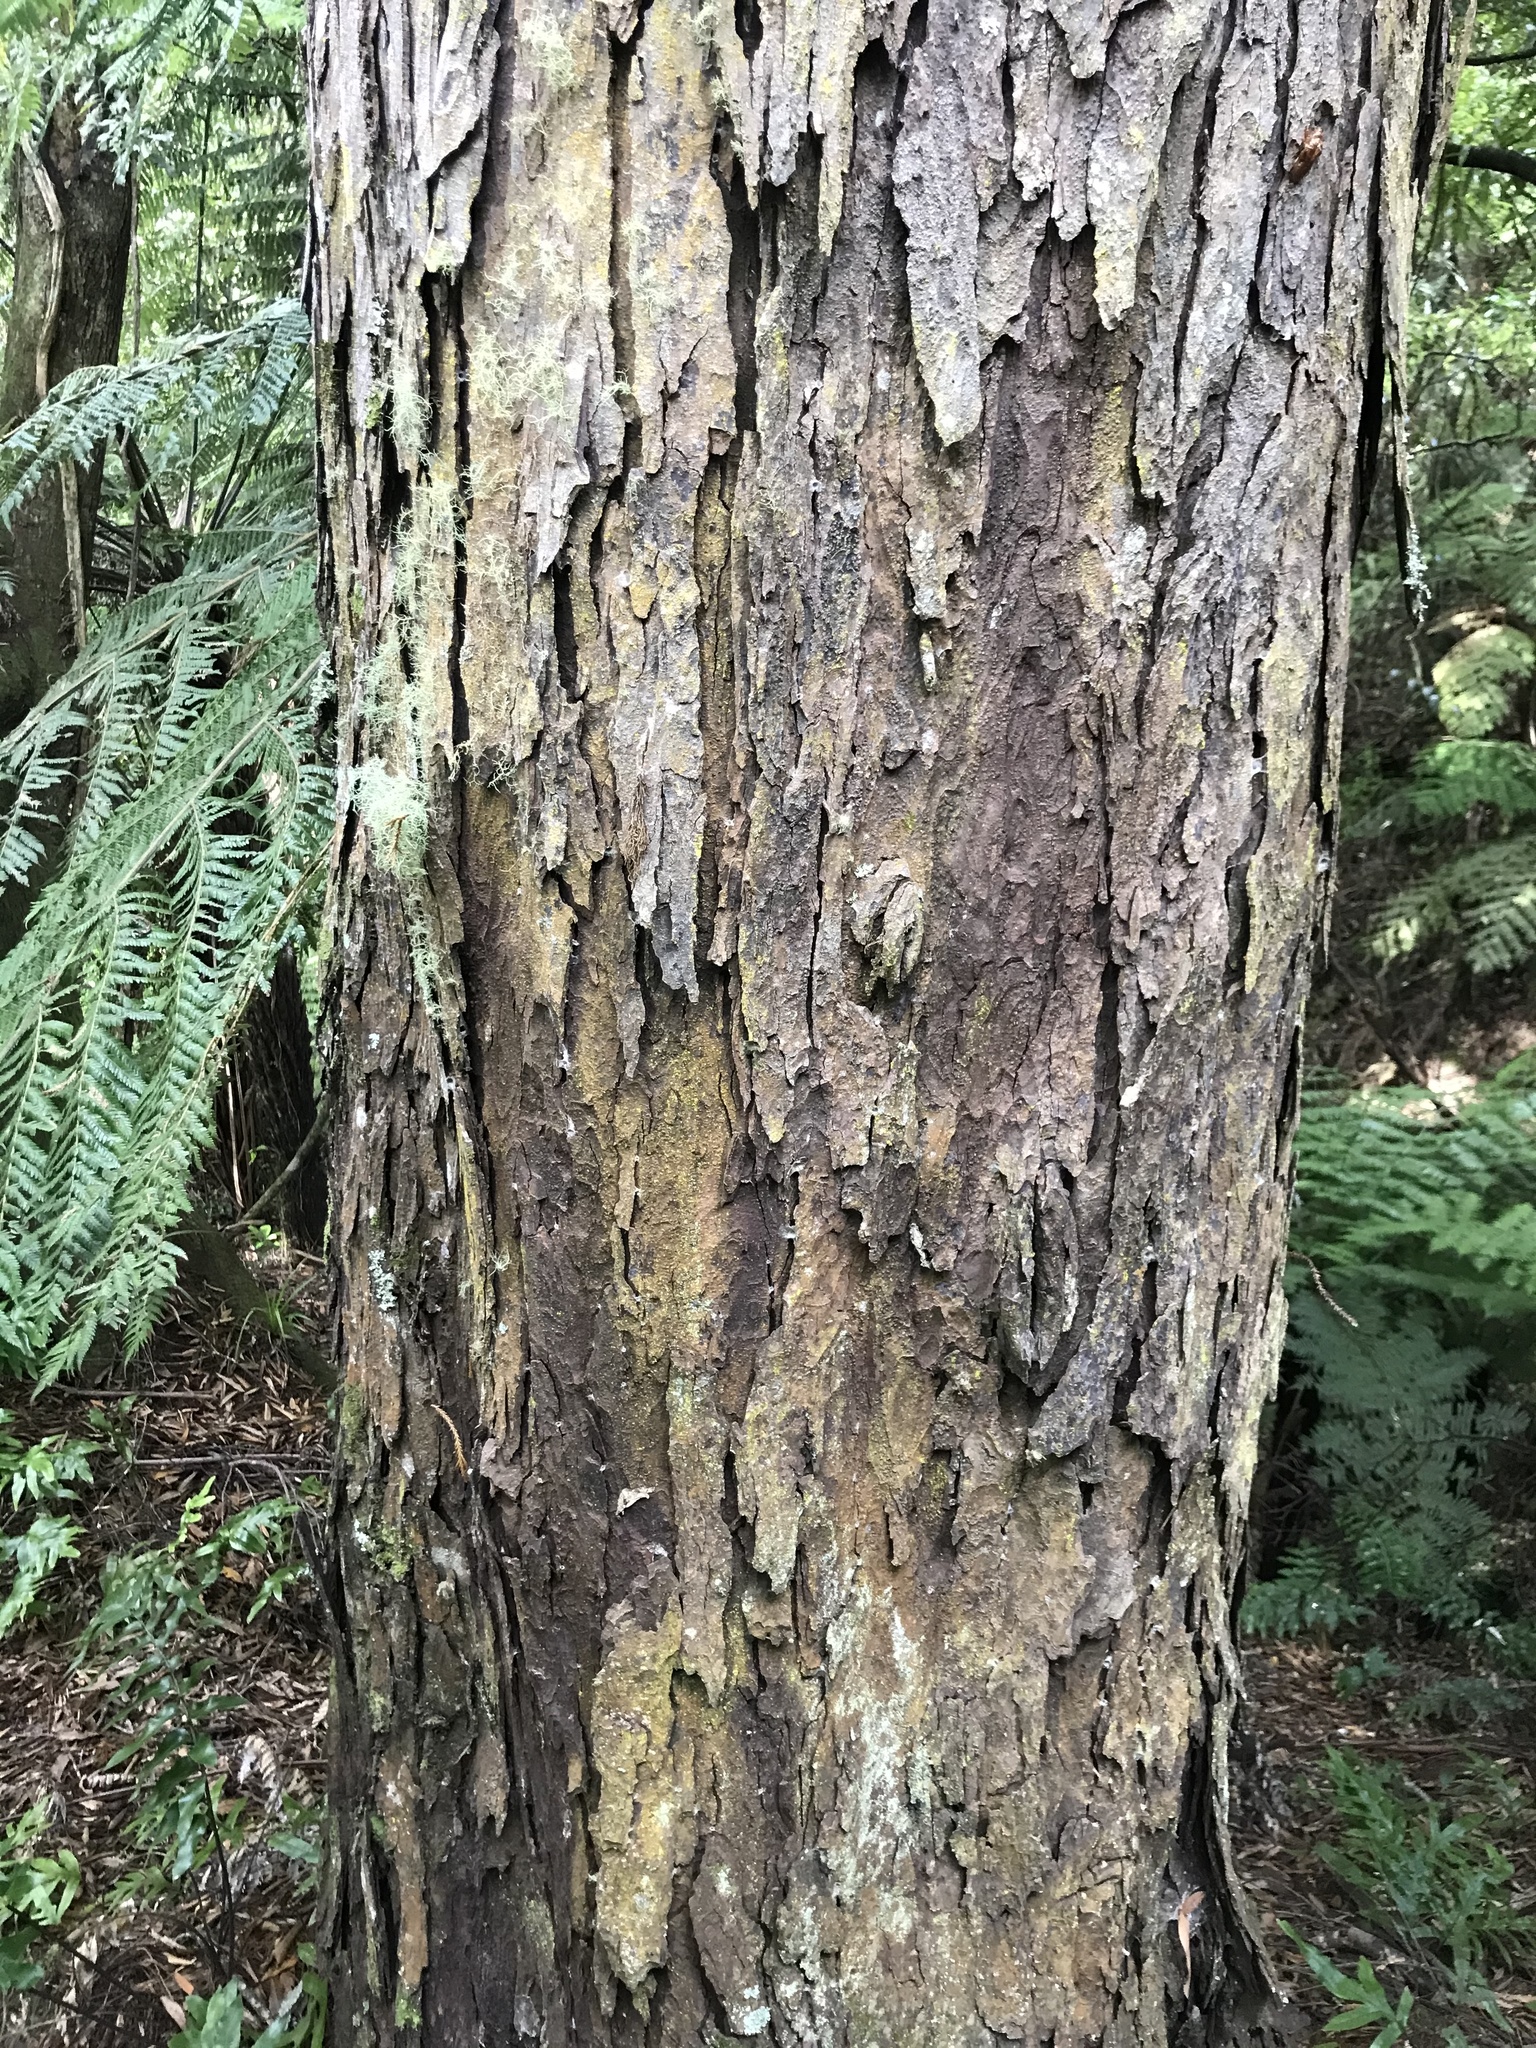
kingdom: Plantae
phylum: Tracheophyta
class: Pinopsida
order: Pinales
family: Podocarpaceae
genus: Dacrydium
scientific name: Dacrydium cupressinum
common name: Red pine
